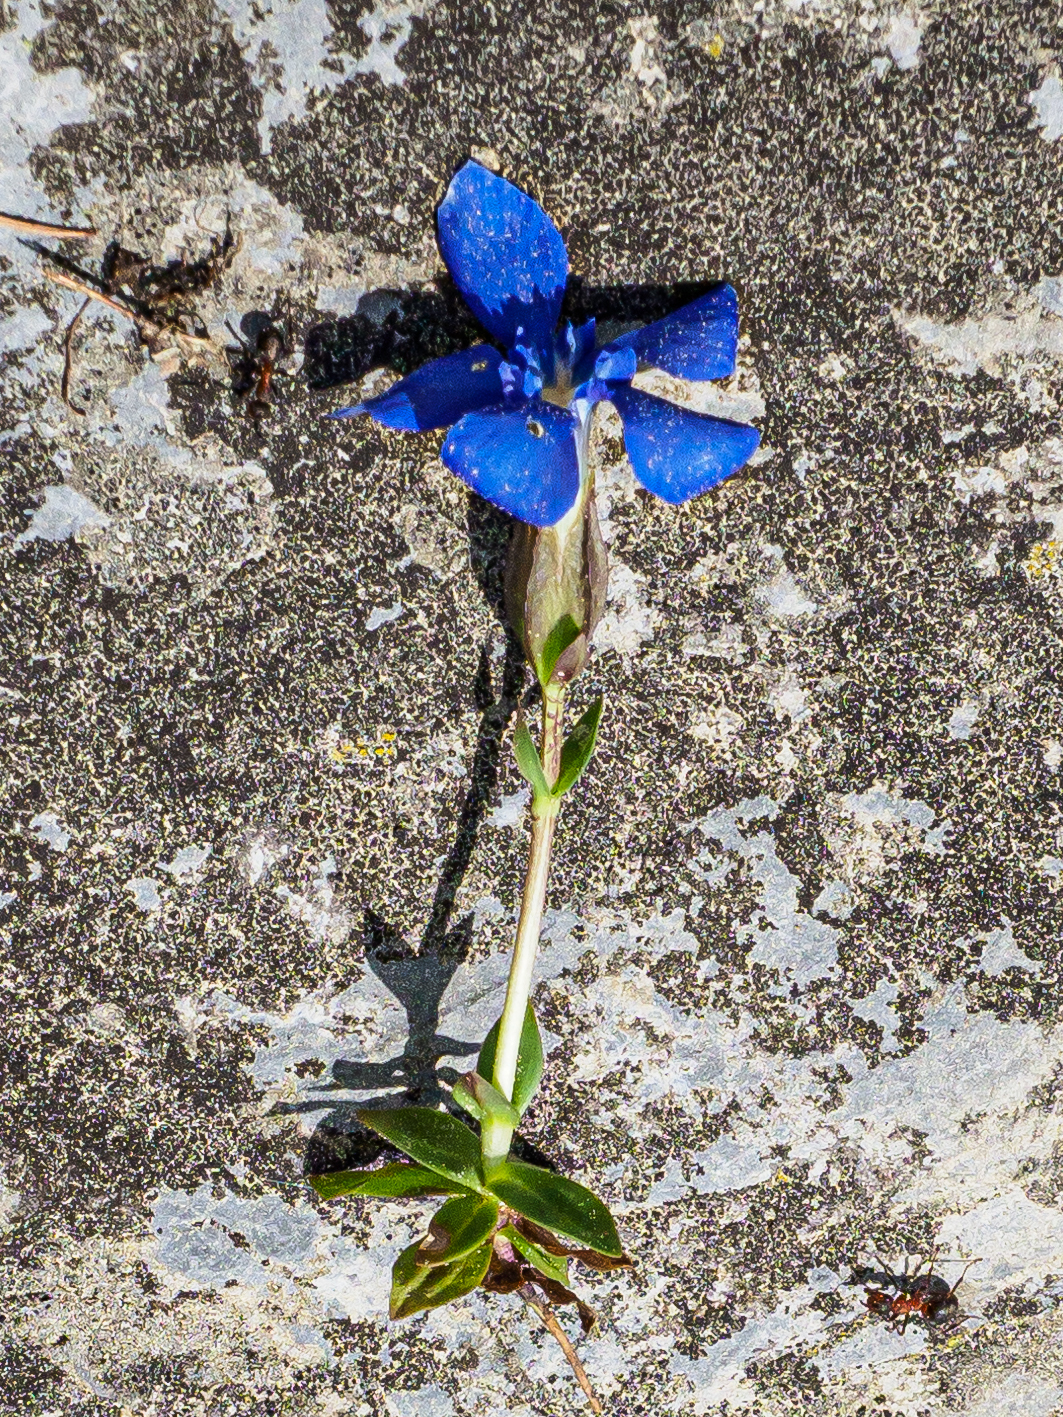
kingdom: Plantae
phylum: Tracheophyta
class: Magnoliopsida
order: Gentianales
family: Gentianaceae
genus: Gentiana
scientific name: Gentiana verna
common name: Spring gentian
